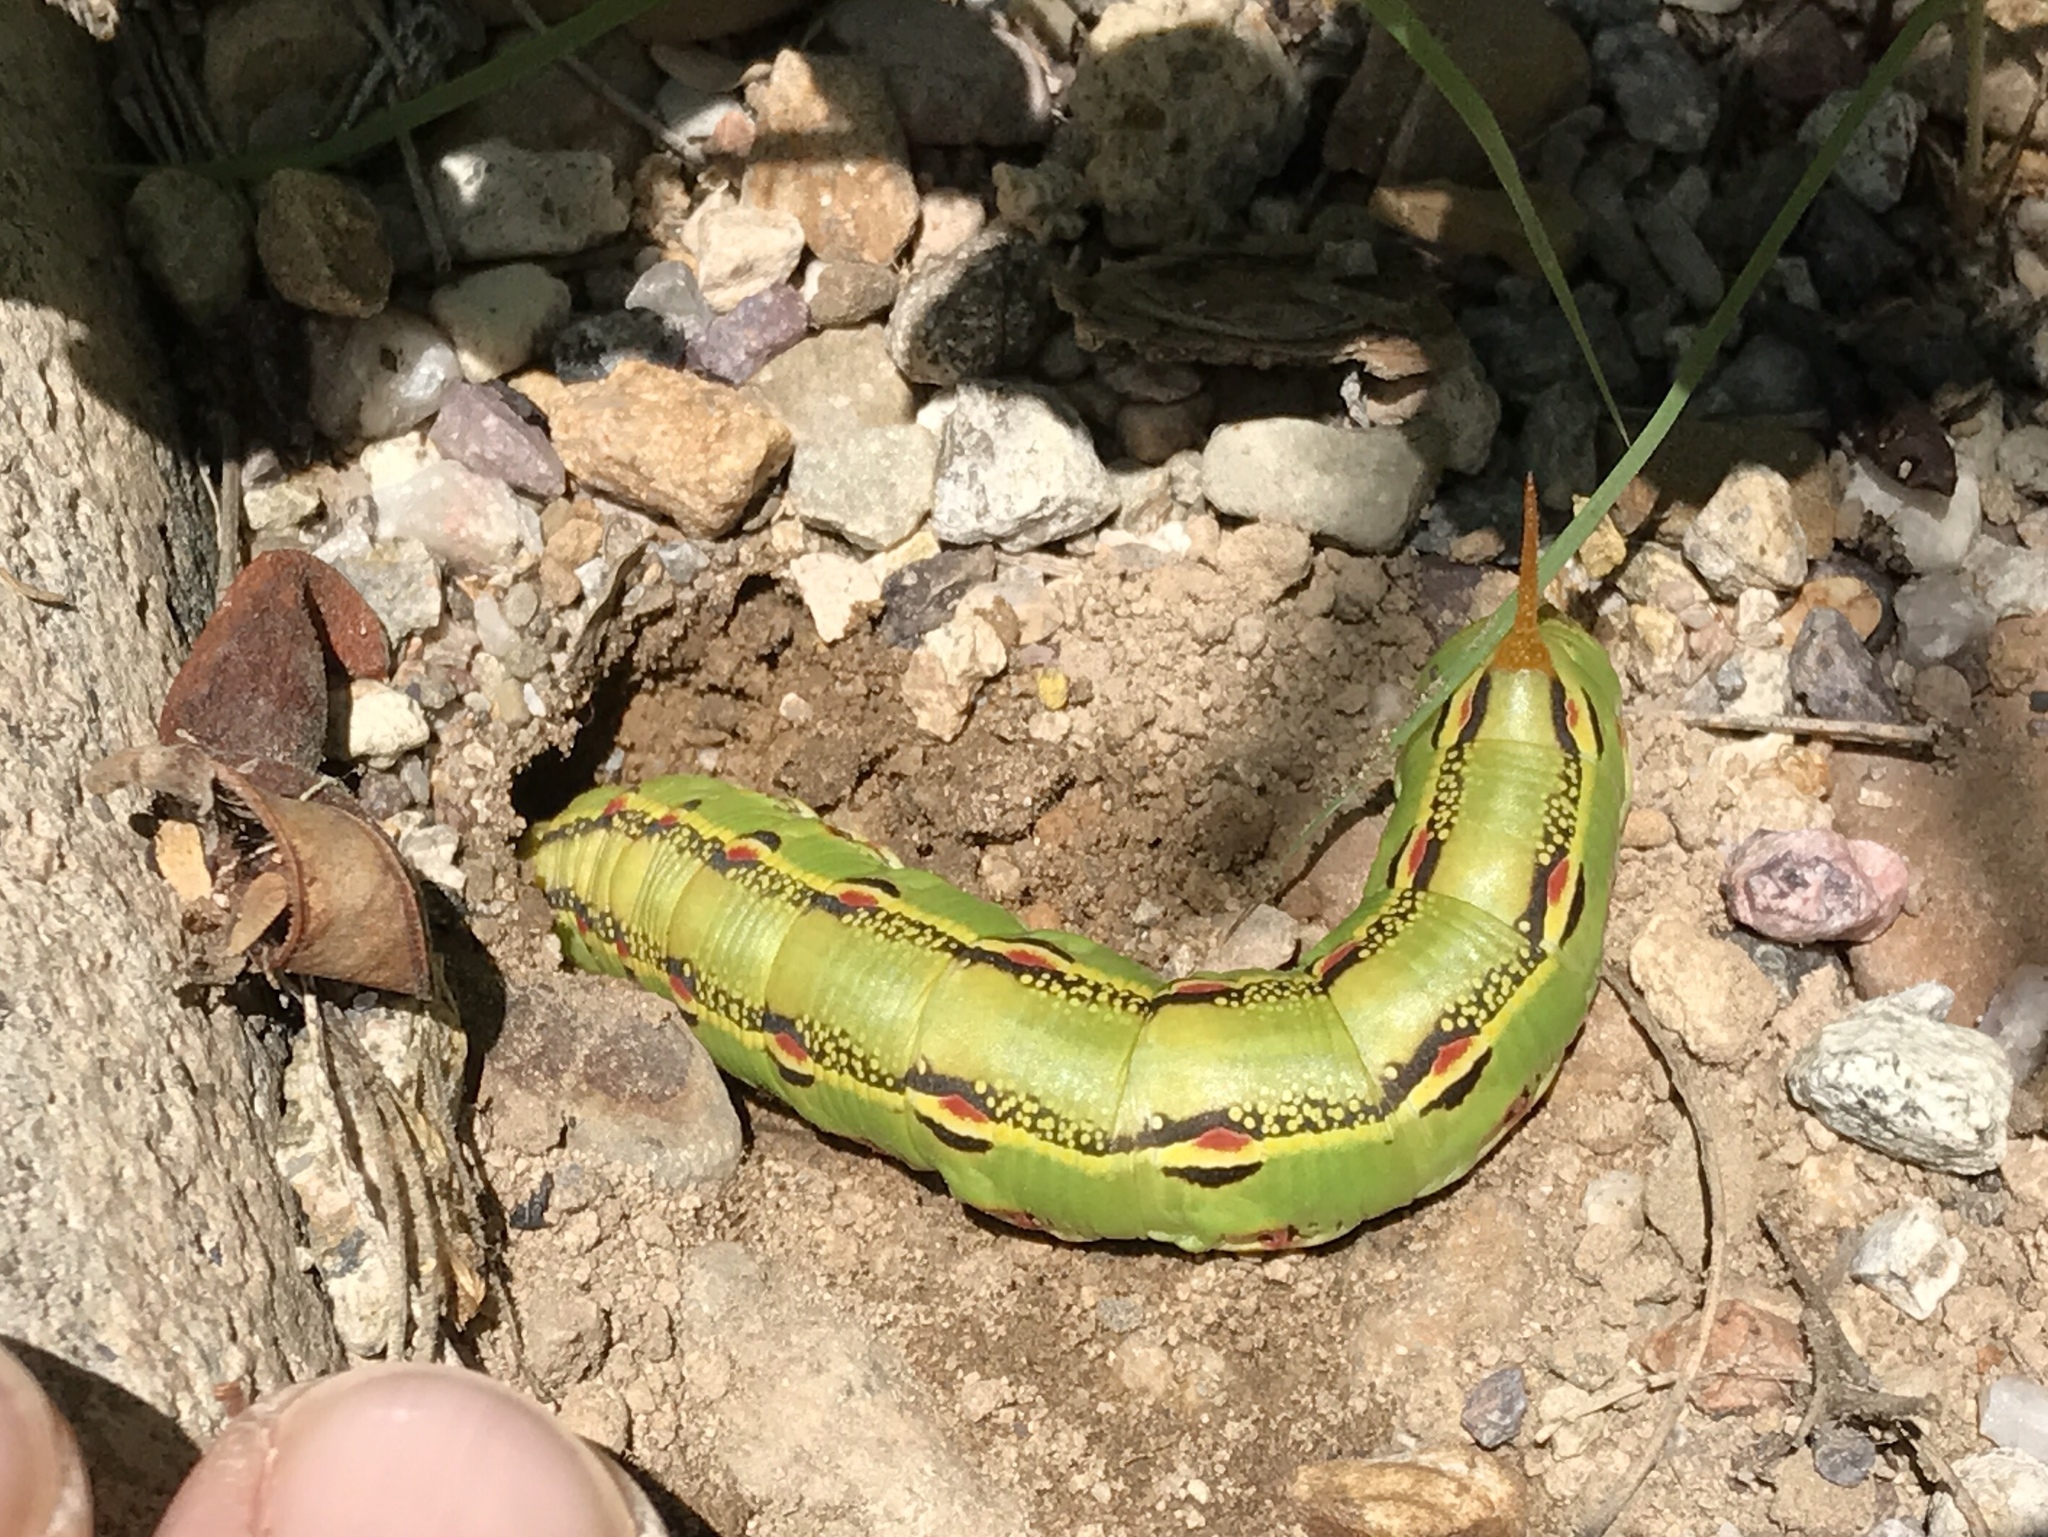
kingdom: Animalia
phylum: Arthropoda
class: Insecta
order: Lepidoptera
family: Sphingidae
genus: Hyles
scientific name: Hyles lineata
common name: White-lined sphinx
